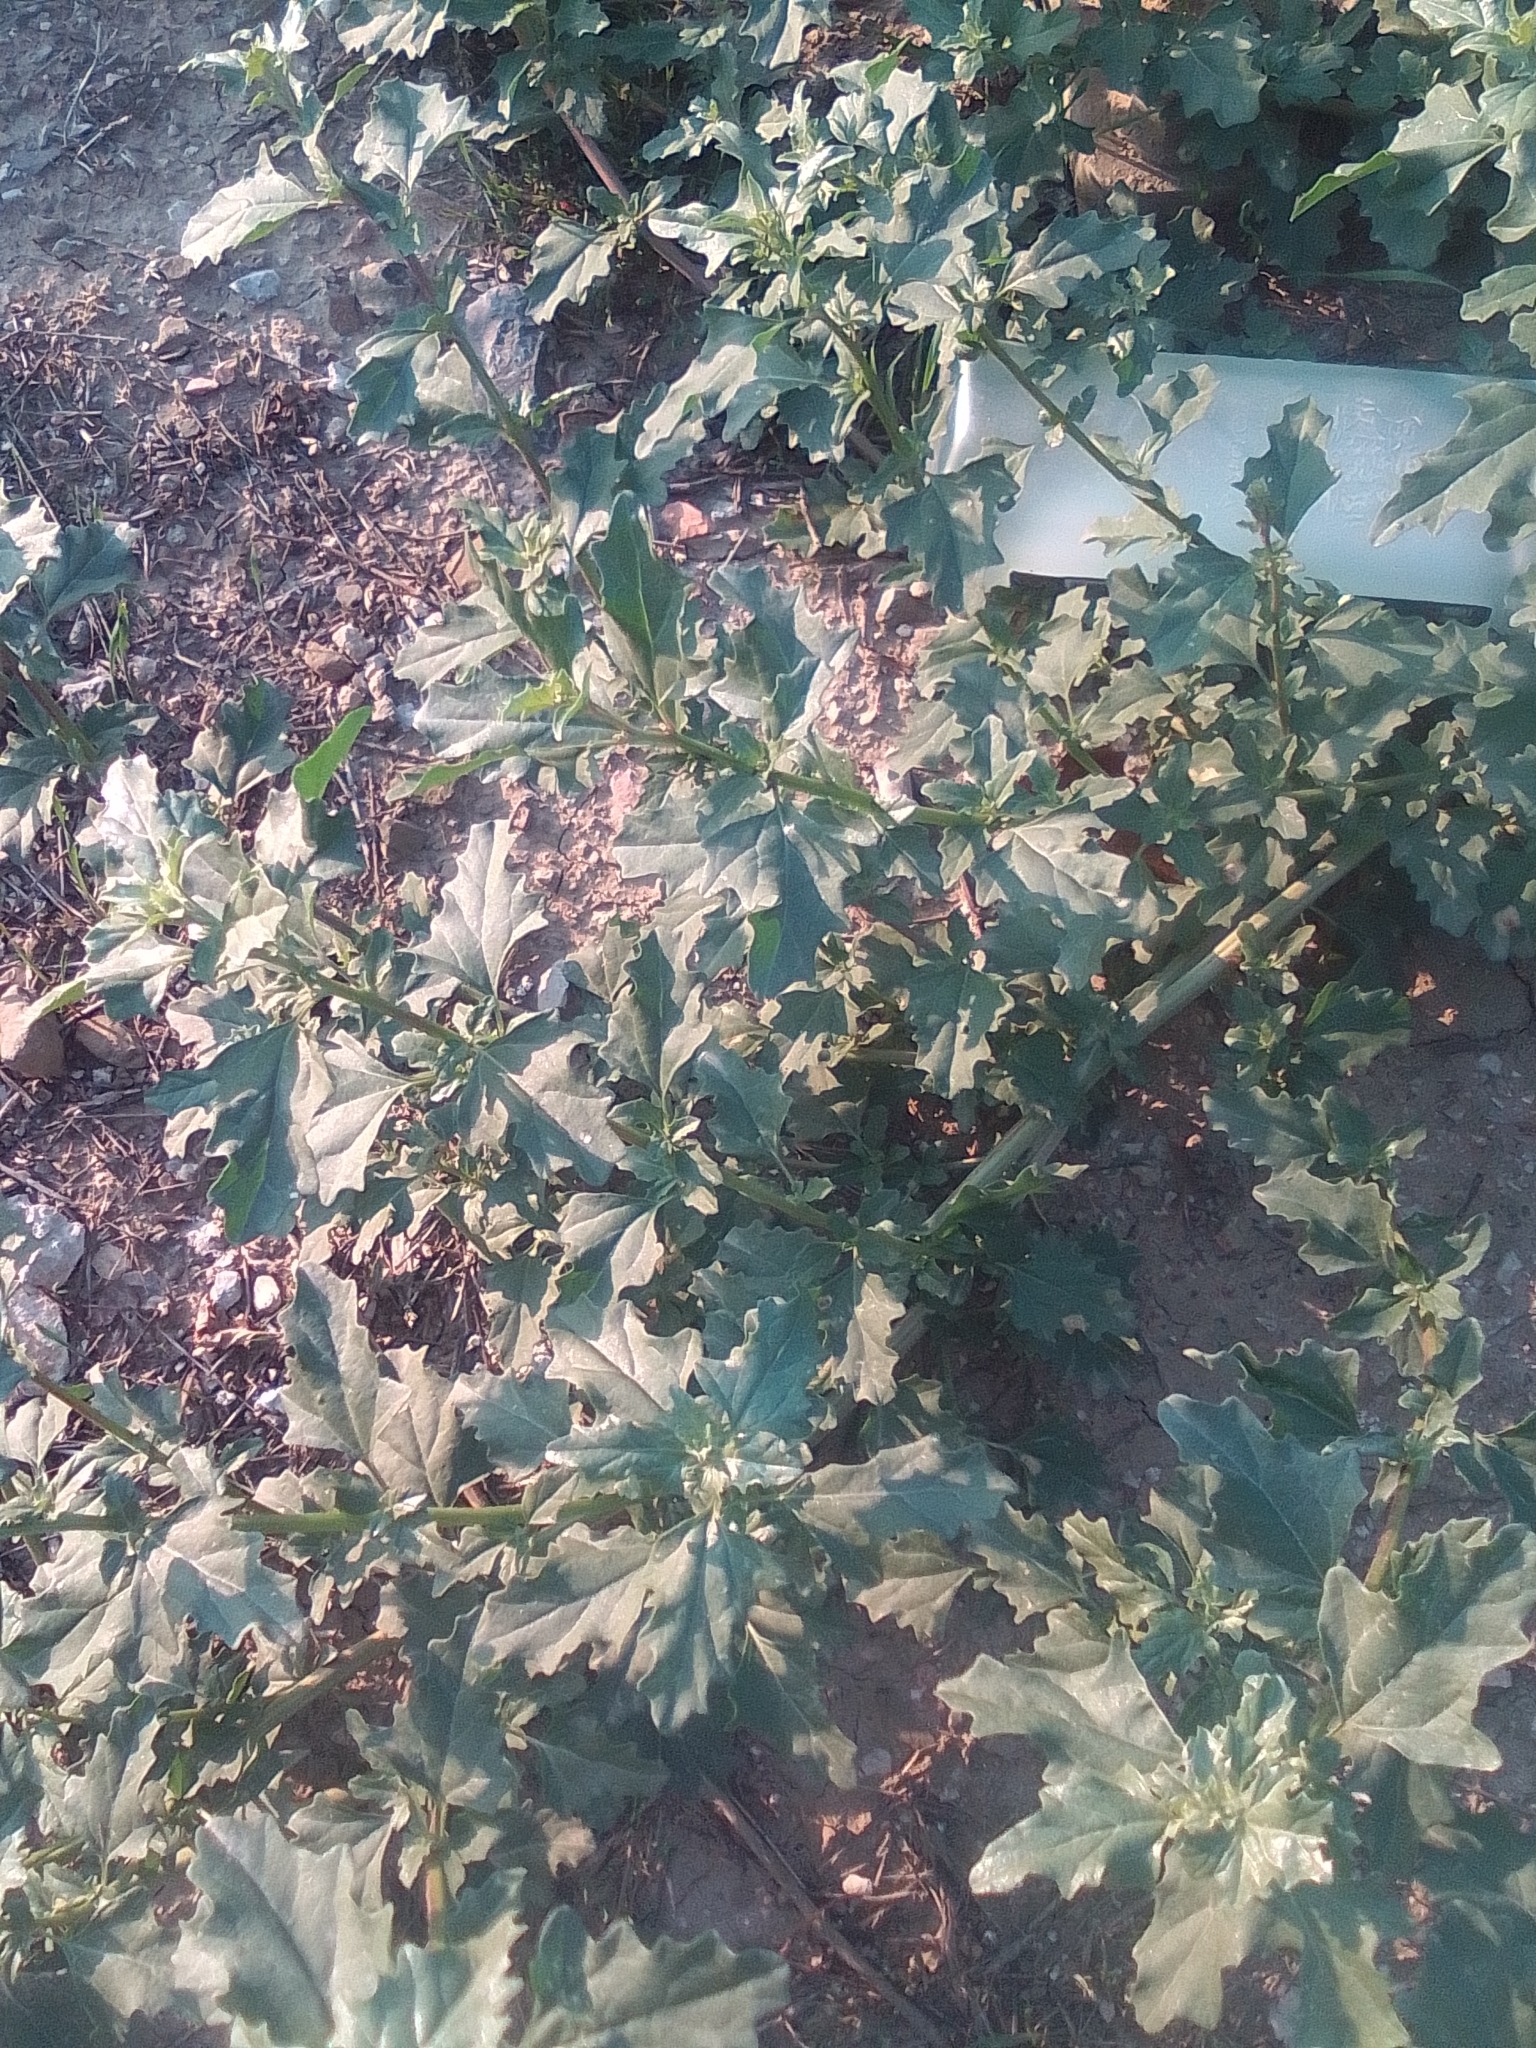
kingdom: Plantae
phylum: Tracheophyta
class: Magnoliopsida
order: Caryophyllales
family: Amaranthaceae
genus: Atriplex
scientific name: Atriplex tatarica
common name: Tatarian orache
